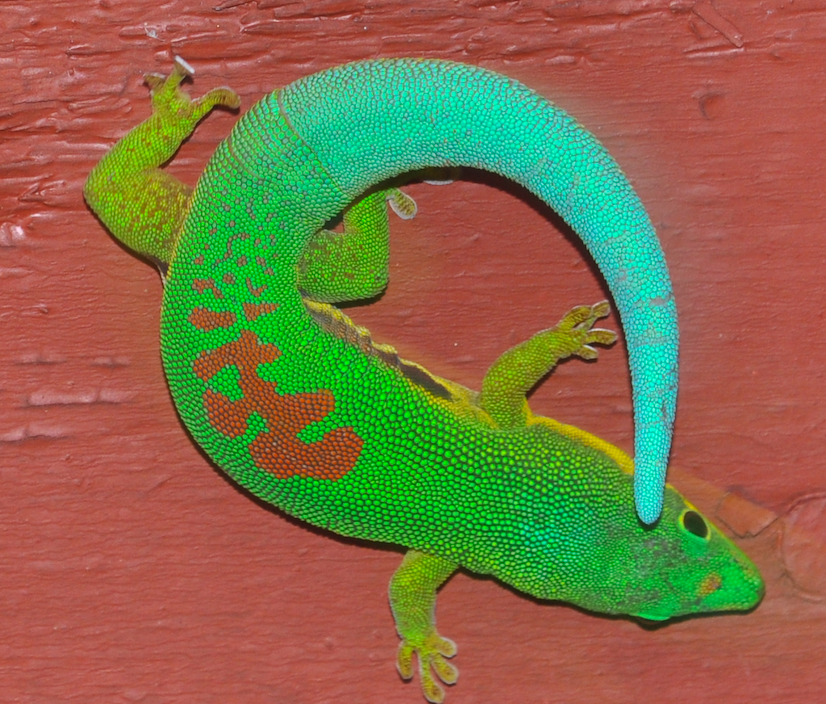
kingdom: Animalia
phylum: Chordata
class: Squamata
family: Gekkonidae
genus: Phelsuma
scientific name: Phelsuma lineata
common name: Lined day gecko
